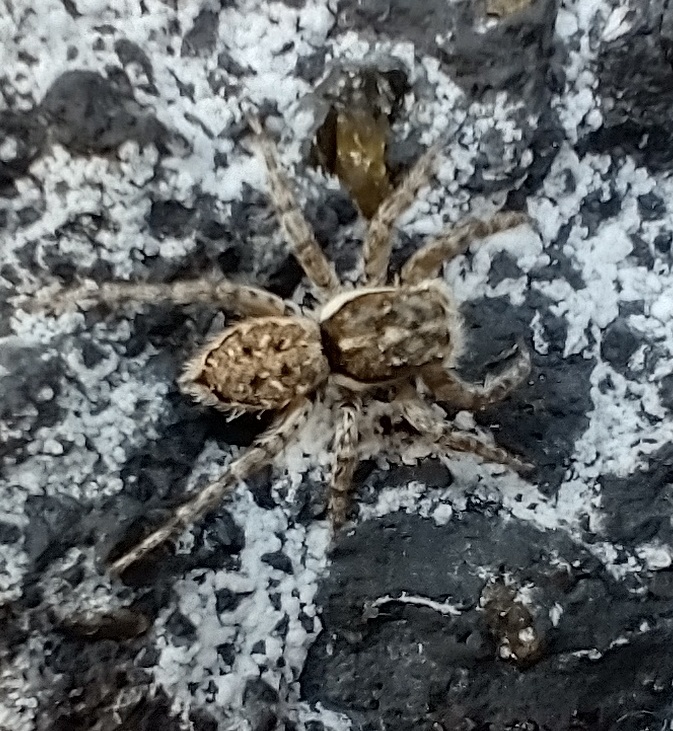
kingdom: Animalia
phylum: Arthropoda
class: Arachnida
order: Araneae
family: Salticidae
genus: Menemerus
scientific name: Menemerus semilimbatus
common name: Jumping spider
